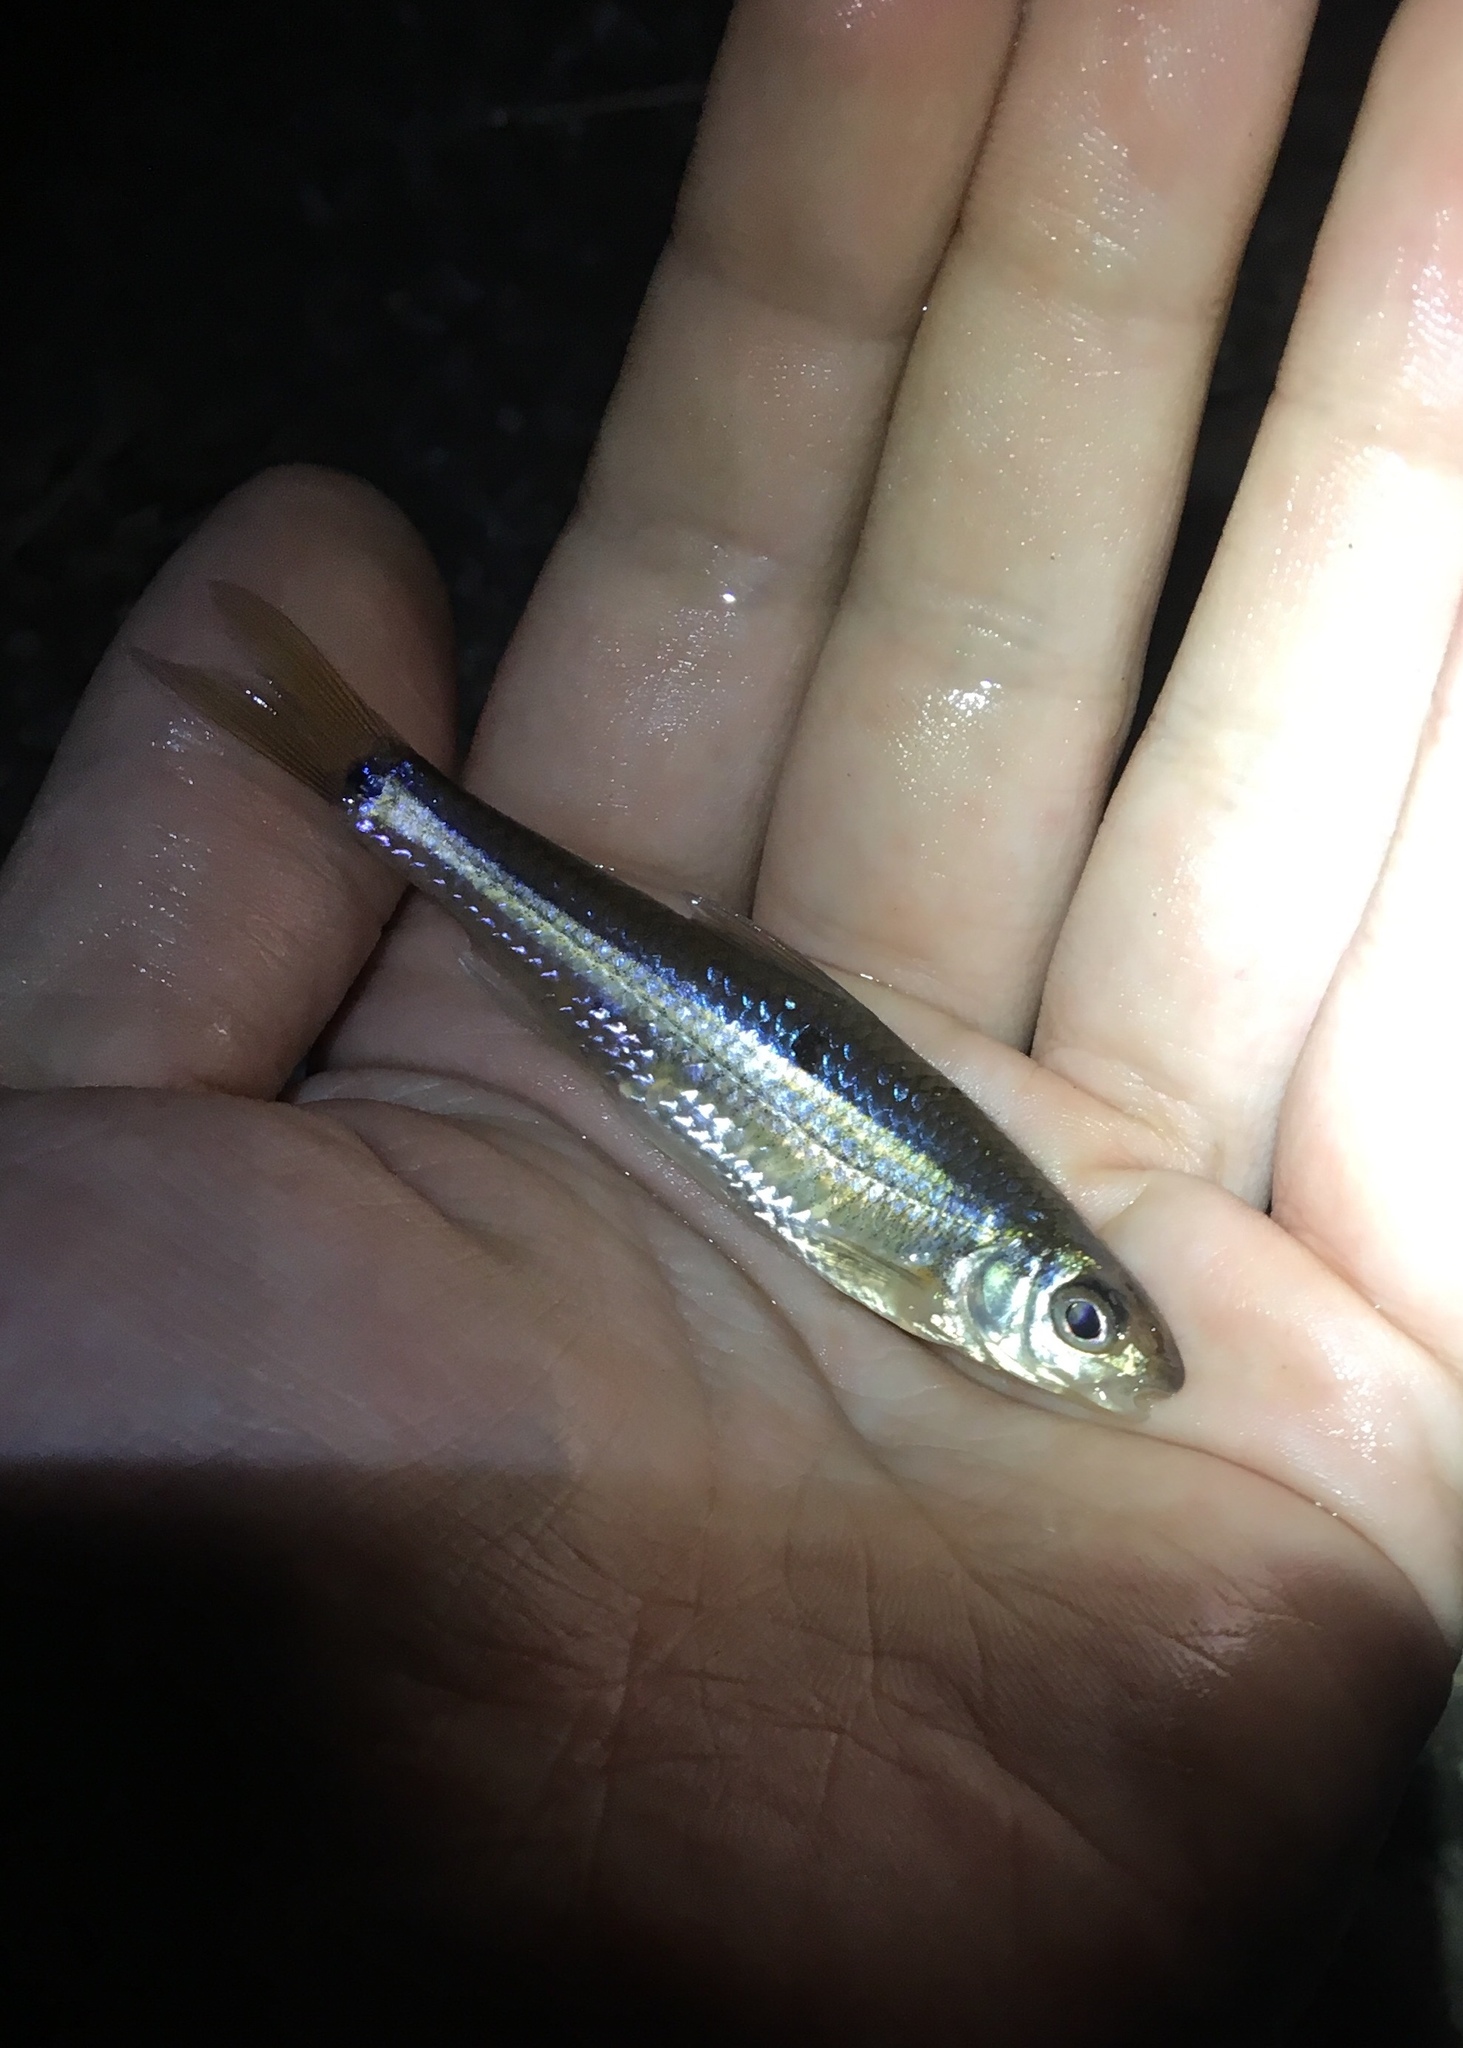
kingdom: Animalia
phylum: Chordata
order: Cypriniformes
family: Cyprinidae
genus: Notropis
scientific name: Notropis
